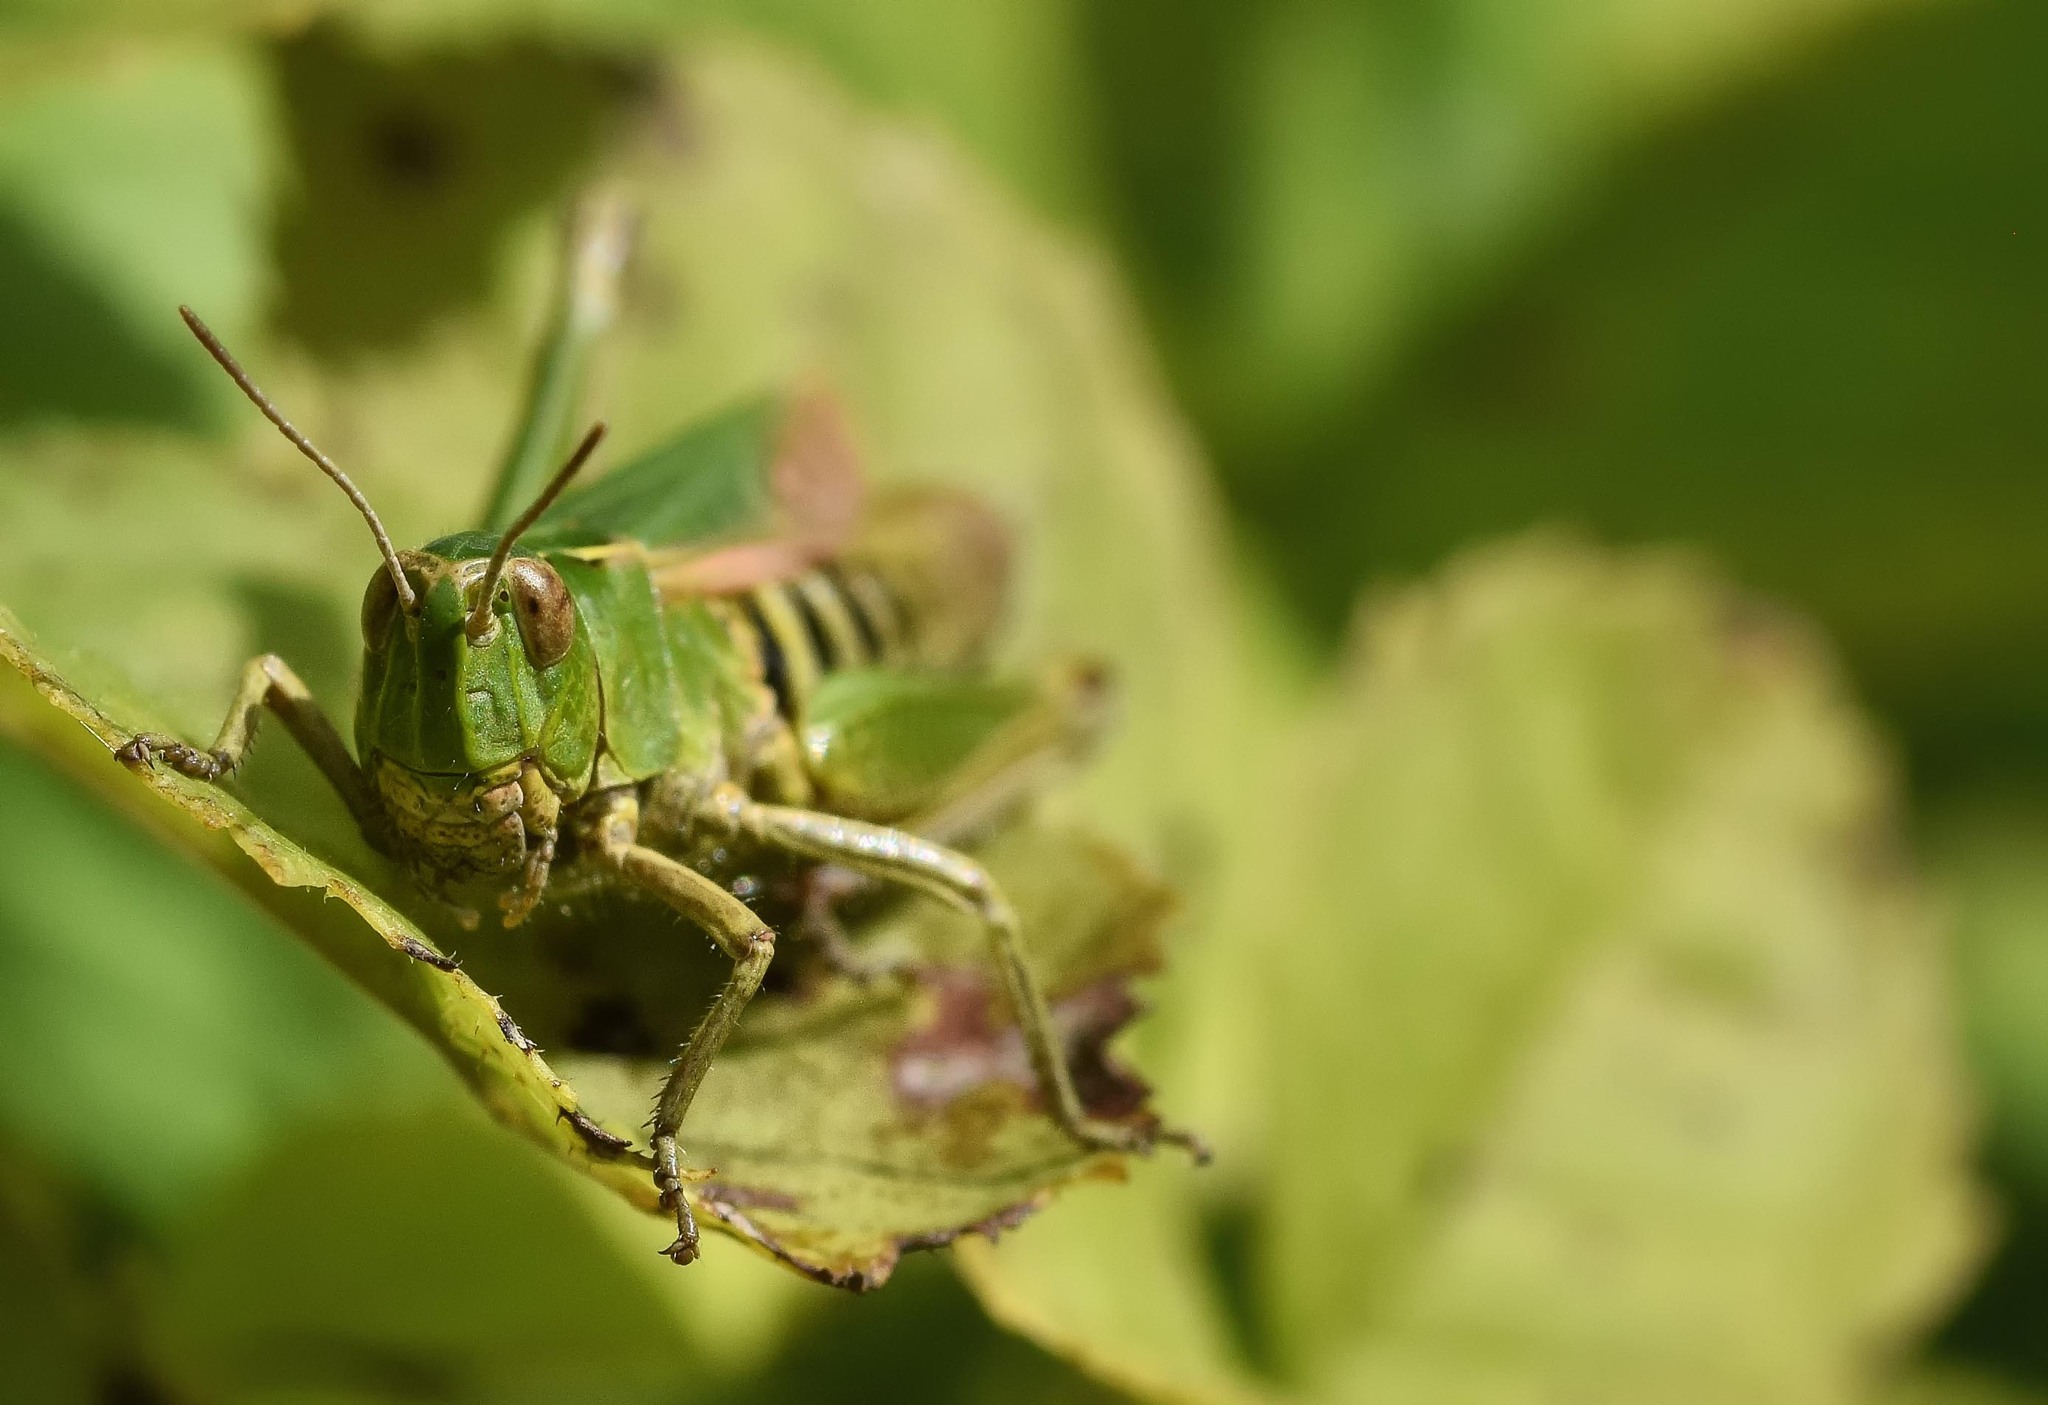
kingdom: Animalia
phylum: Arthropoda
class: Insecta
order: Orthoptera
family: Acrididae
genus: Omocestus
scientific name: Omocestus viridulus
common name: Common green grasshopper
